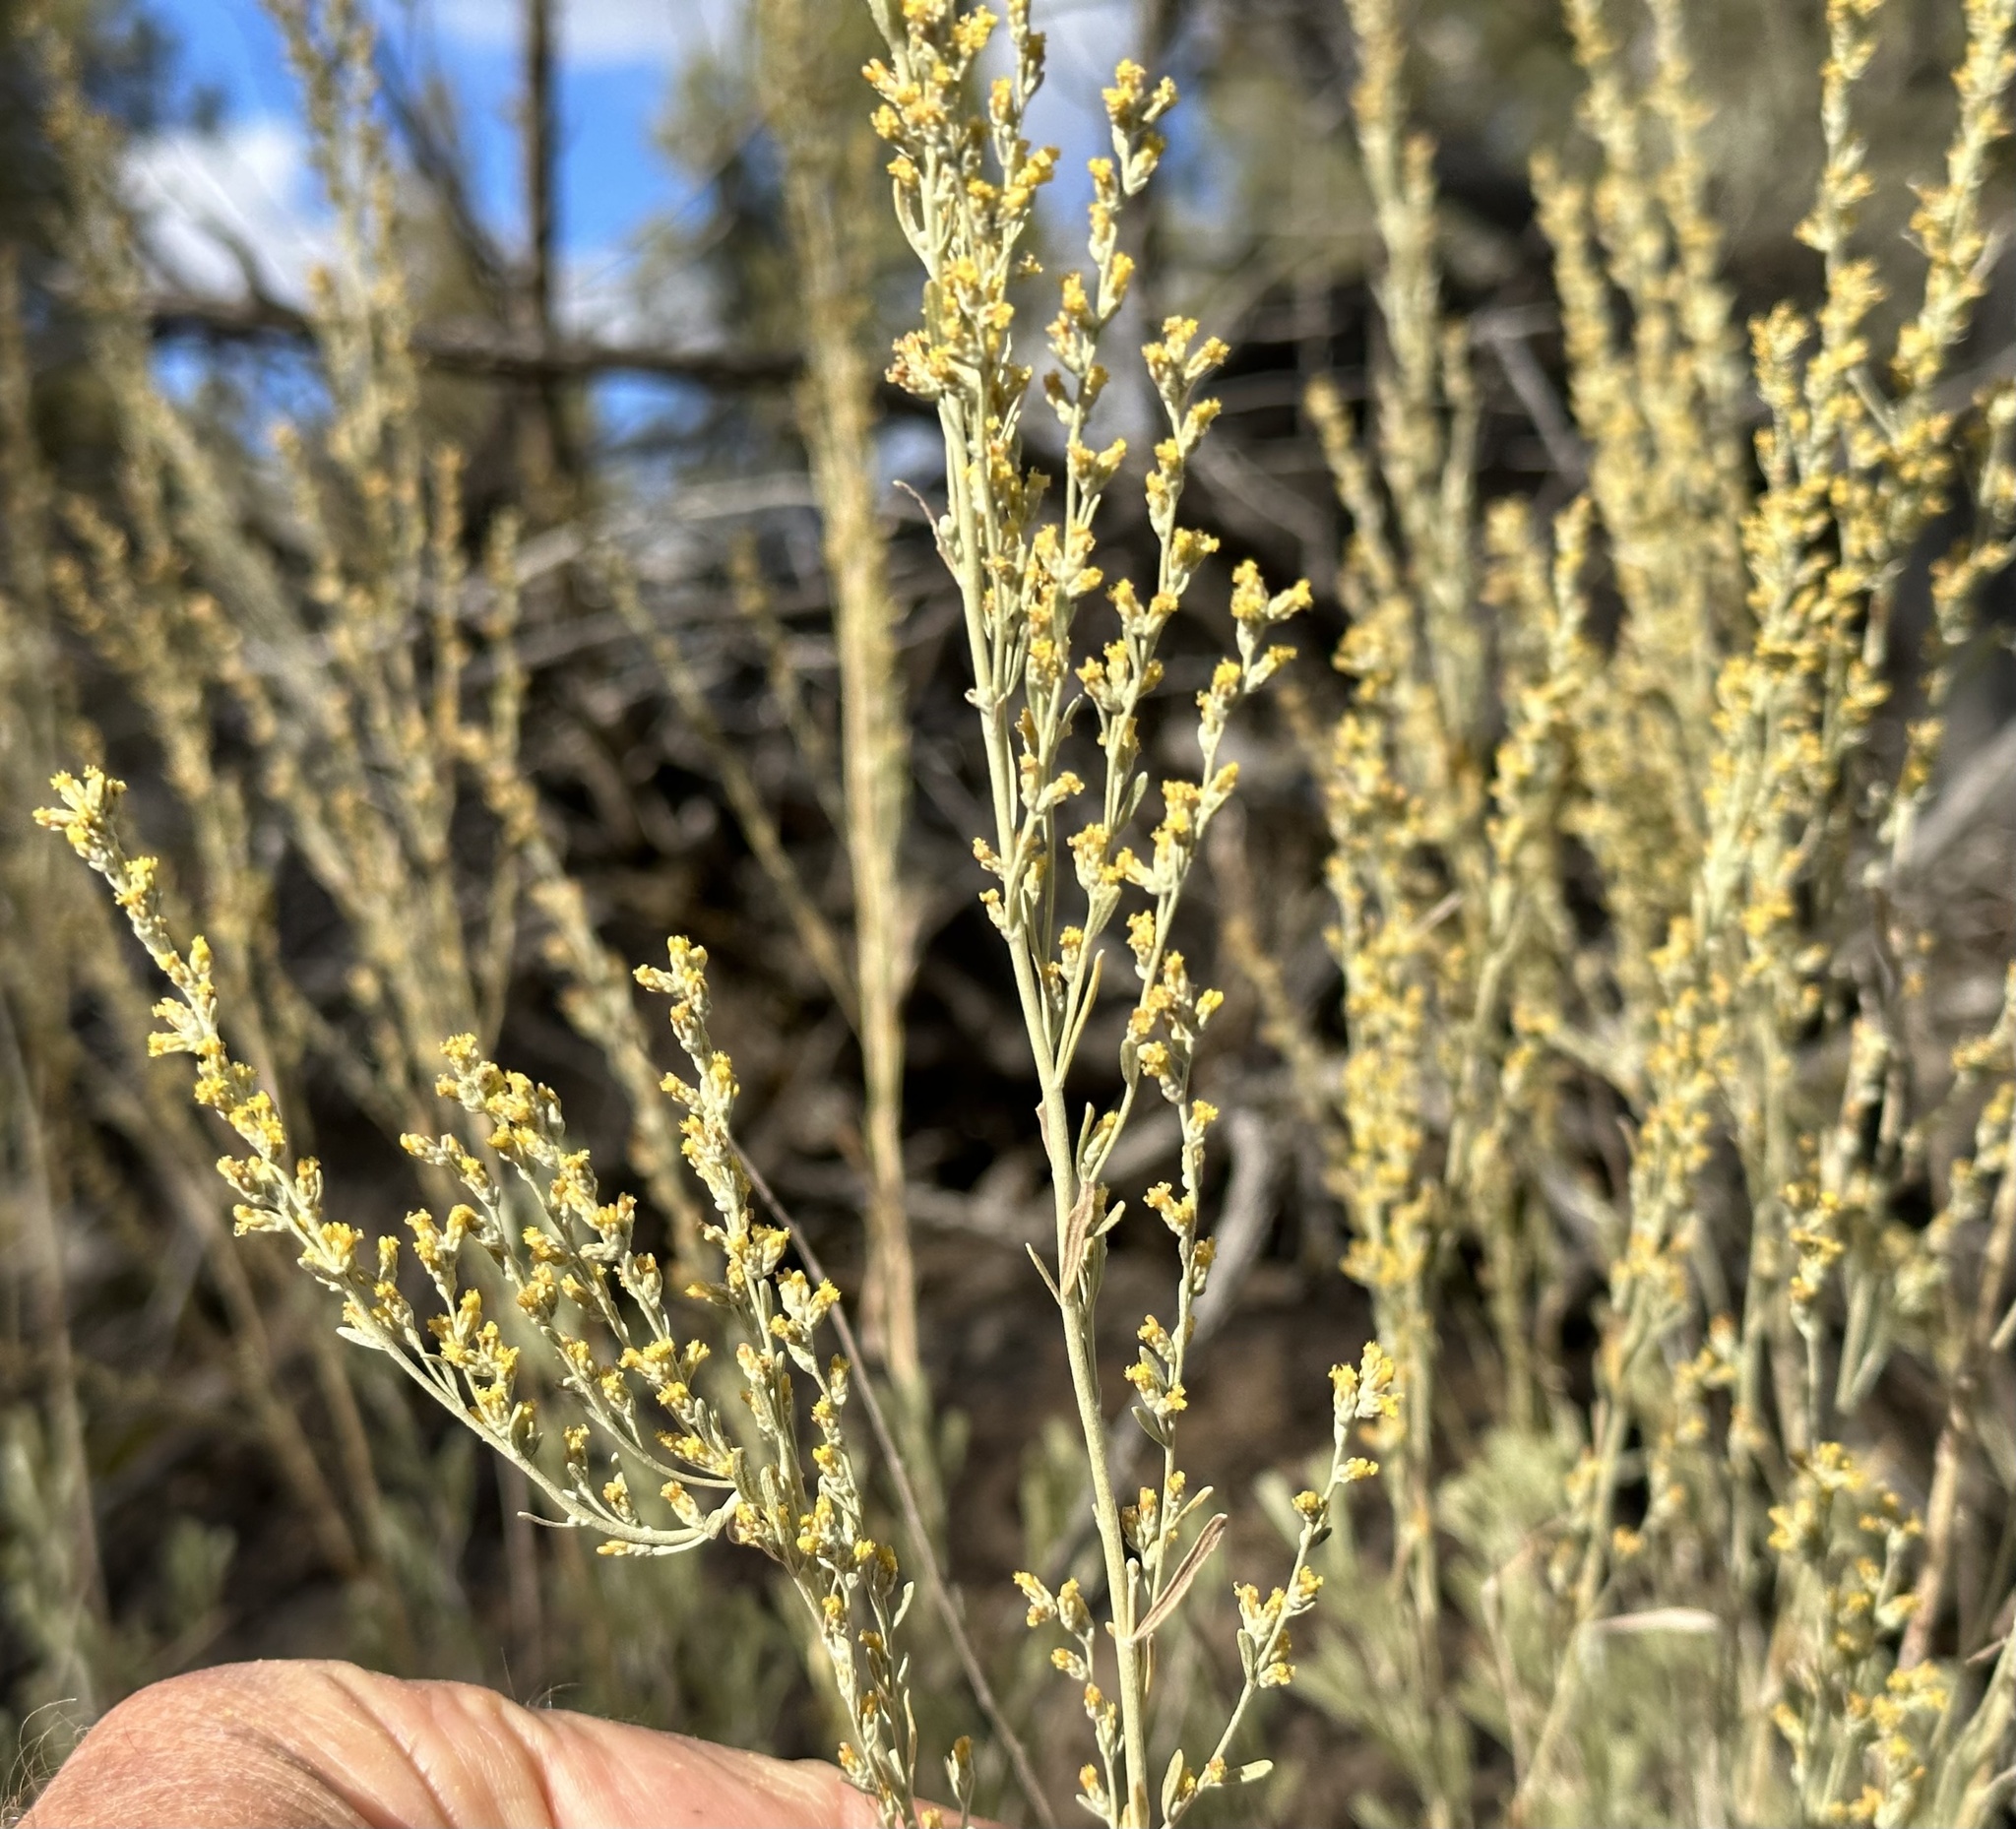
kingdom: Plantae
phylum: Tracheophyta
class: Magnoliopsida
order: Asterales
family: Asteraceae
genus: Artemisia
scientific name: Artemisia tridentata
